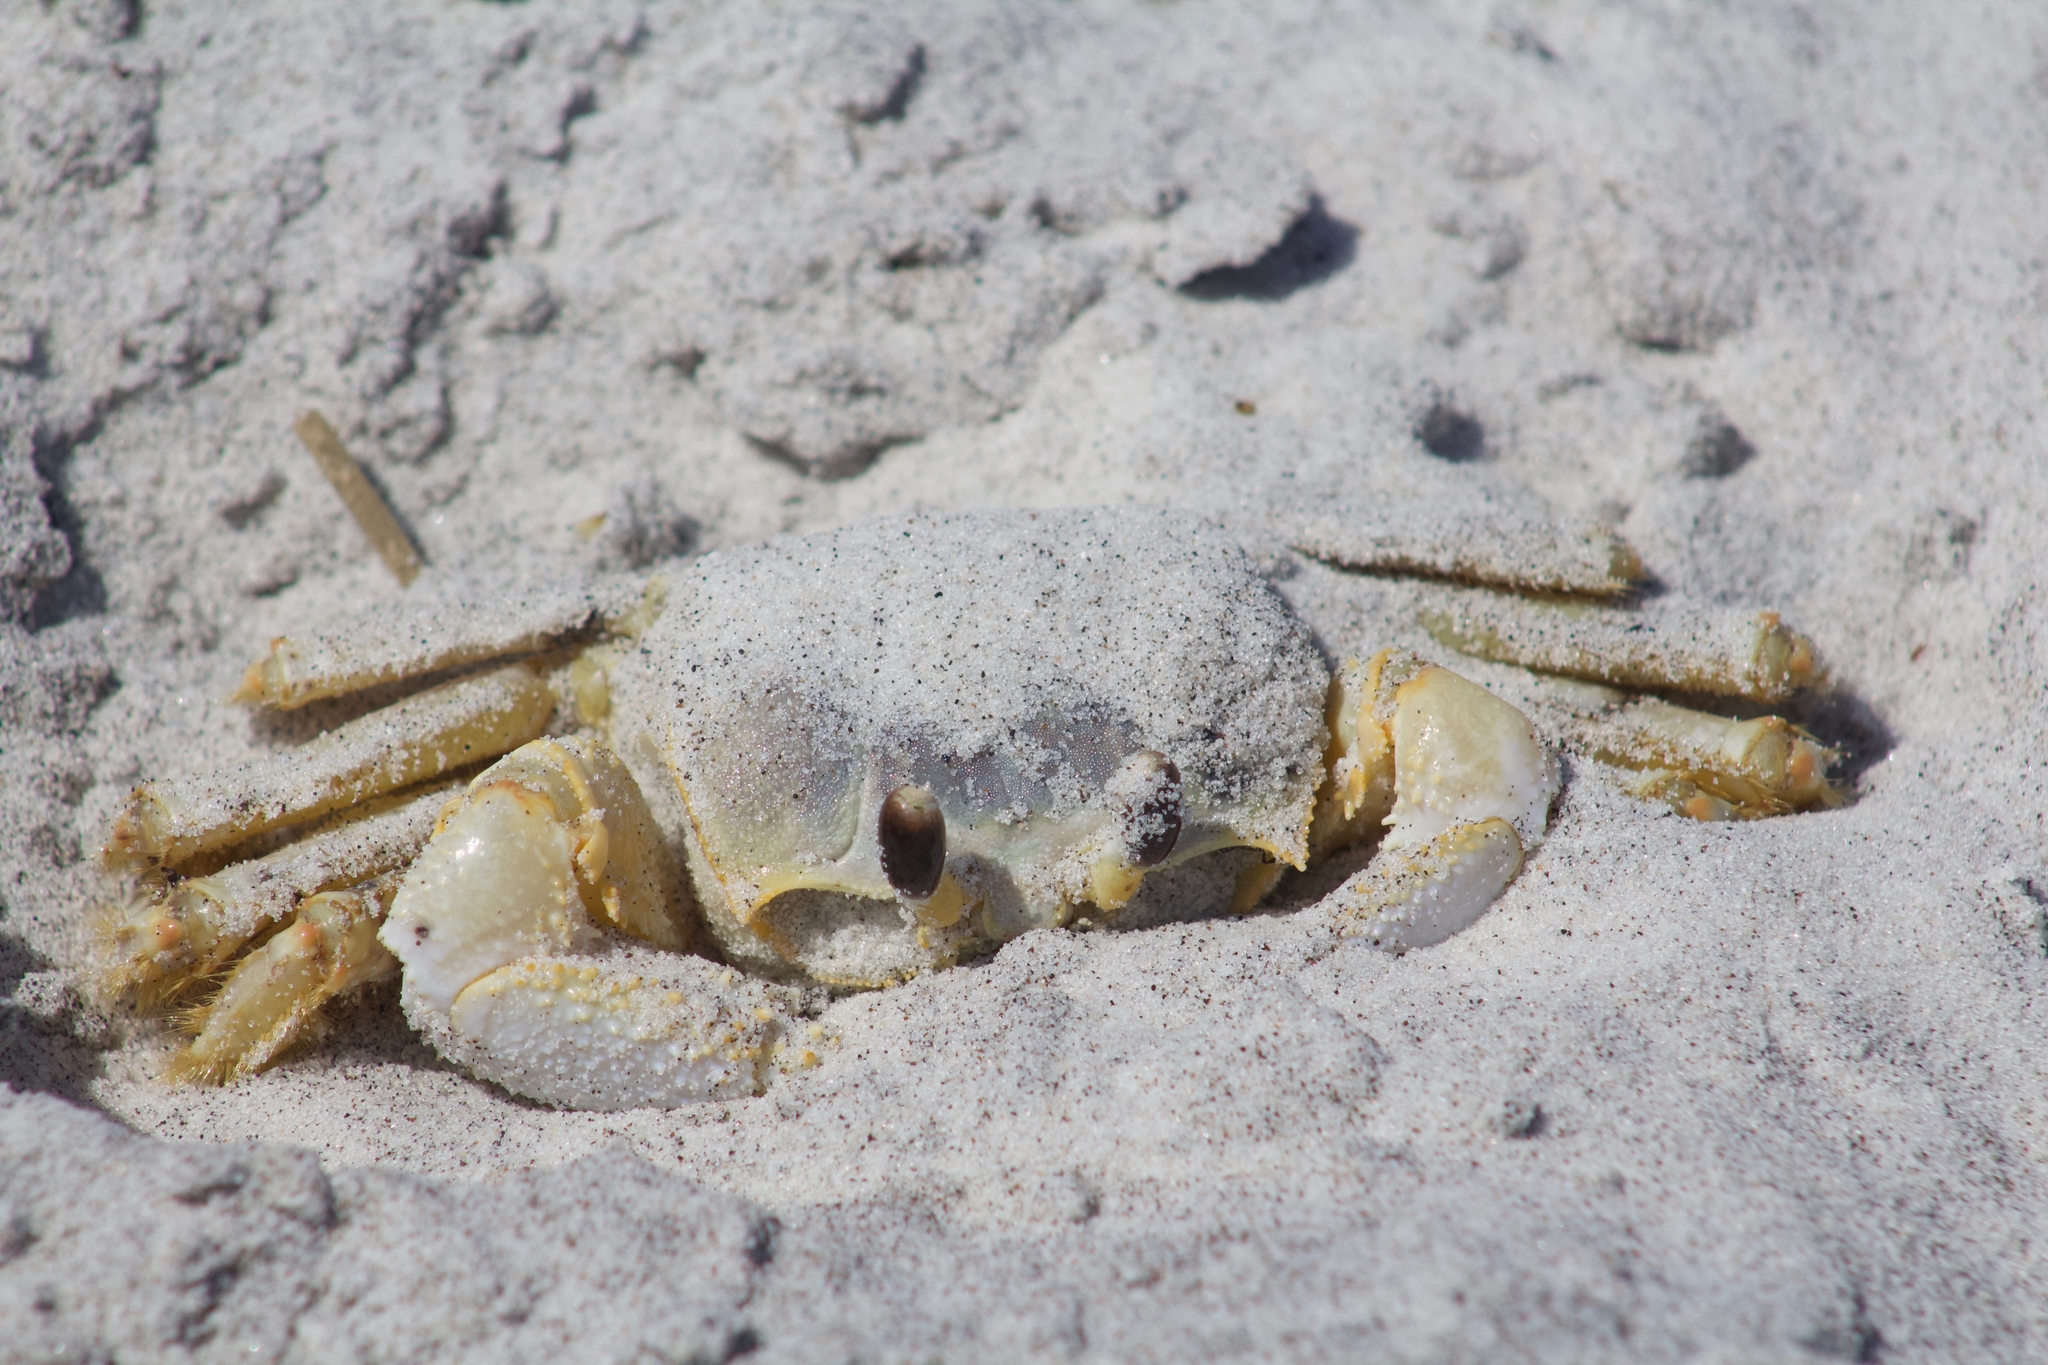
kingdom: Animalia
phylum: Arthropoda
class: Malacostraca
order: Decapoda
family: Ocypodidae
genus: Ocypode
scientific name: Ocypode quadrata
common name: Ghost crab
